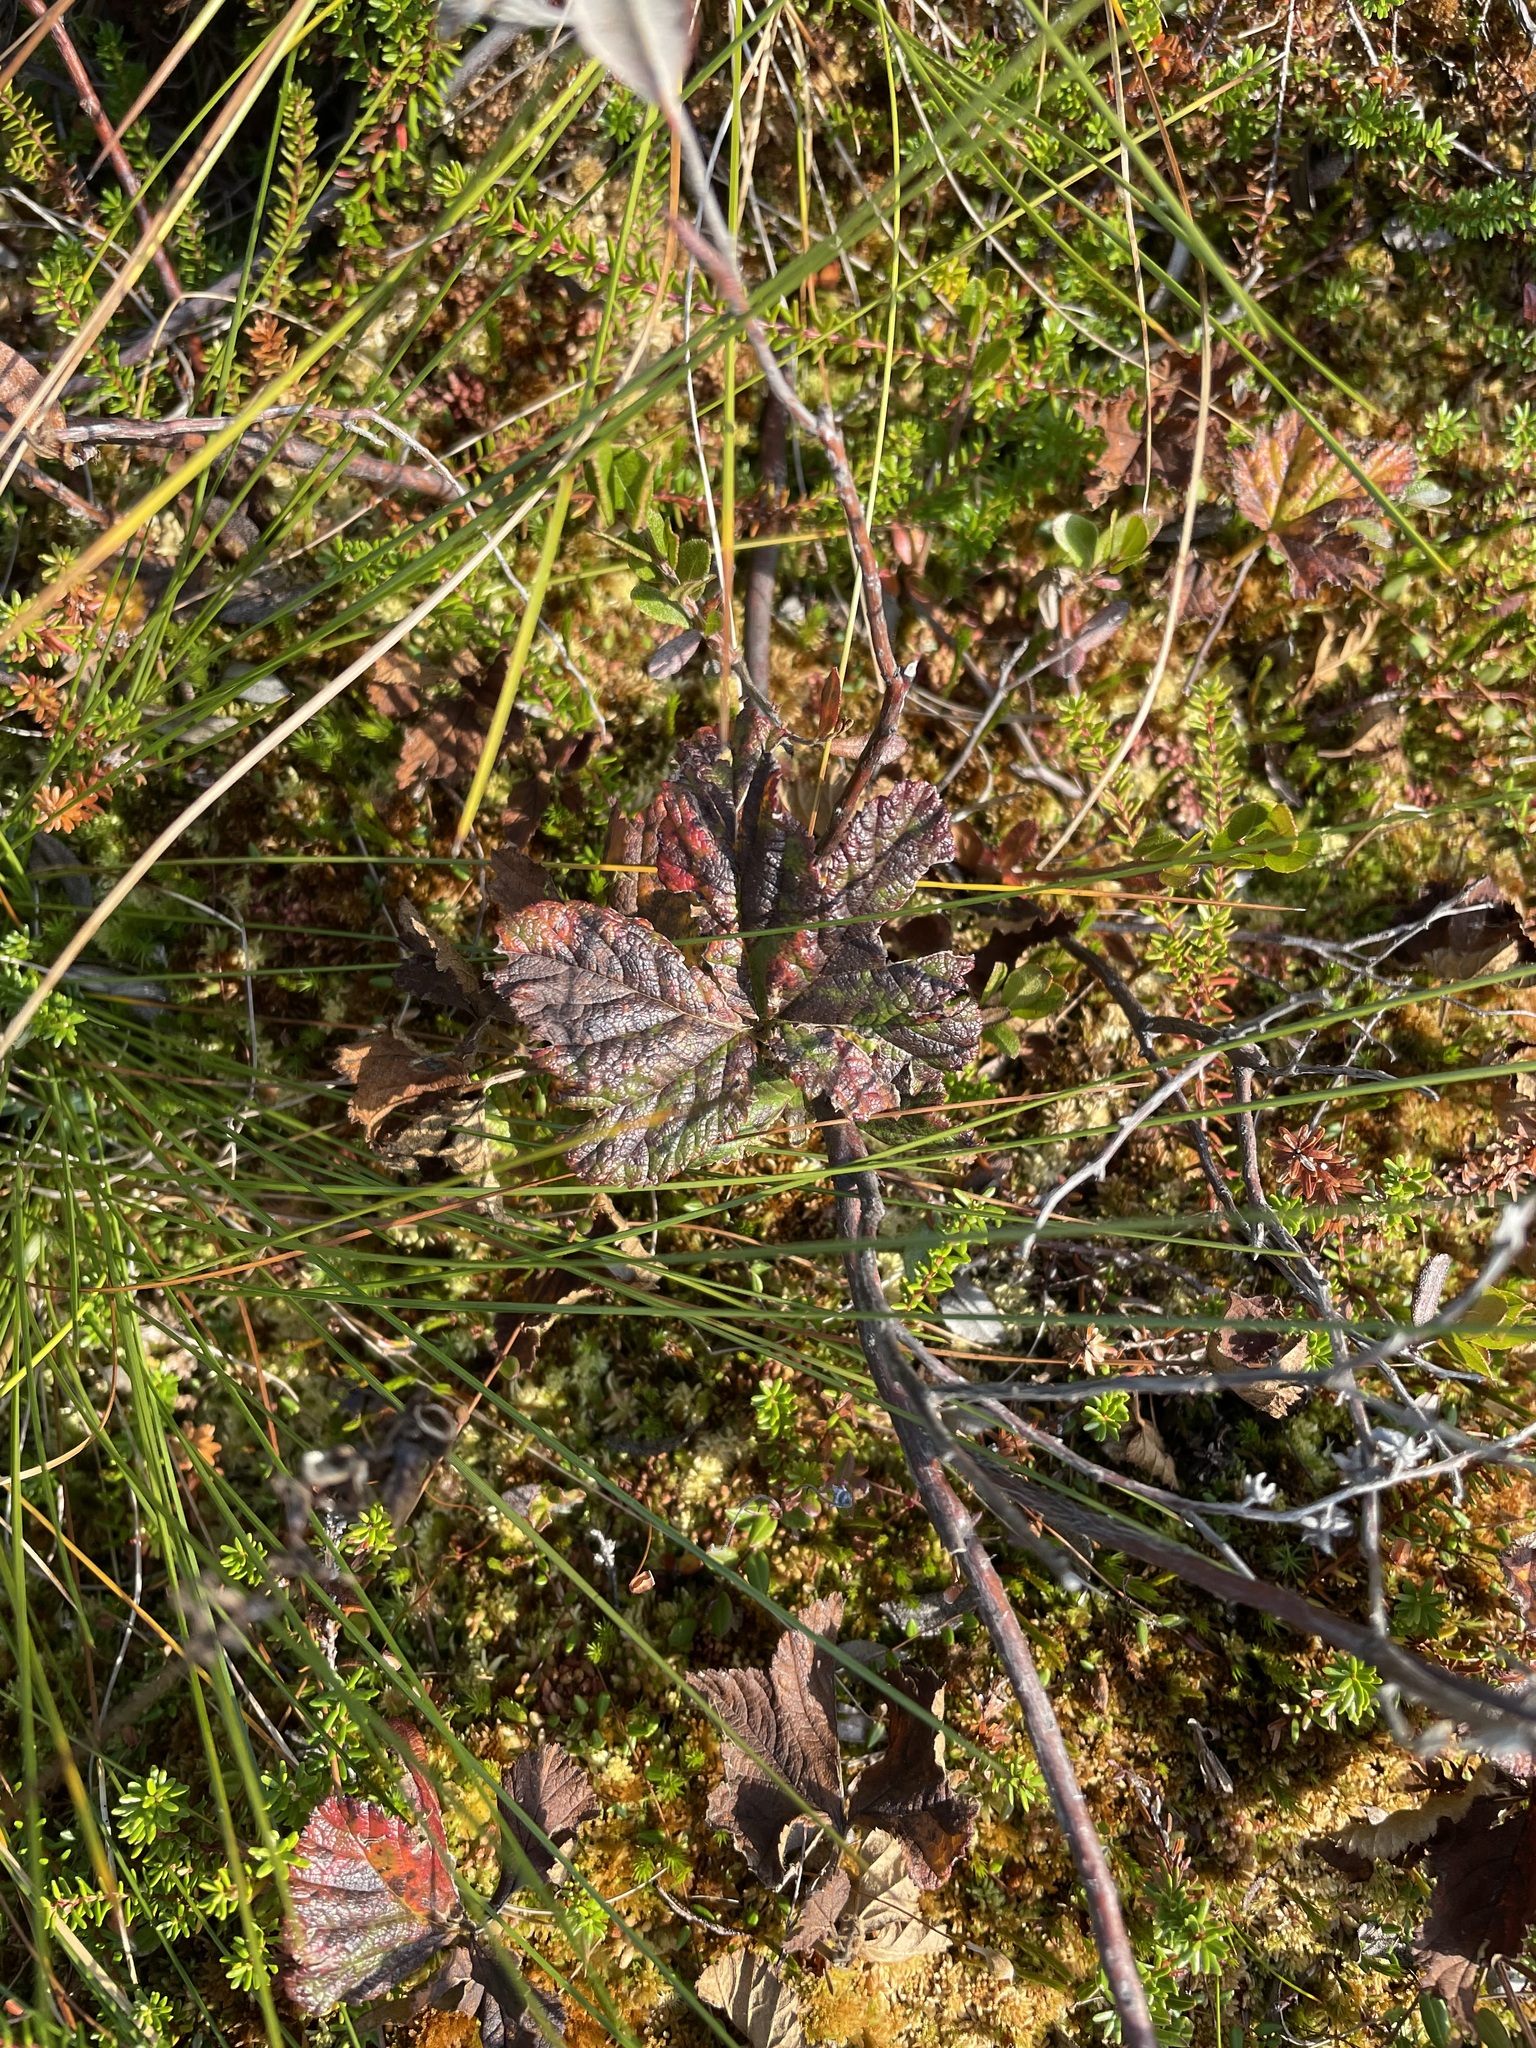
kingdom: Plantae
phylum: Tracheophyta
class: Magnoliopsida
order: Rosales
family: Rosaceae
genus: Rubus
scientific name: Rubus chamaemorus
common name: Cloudberry
